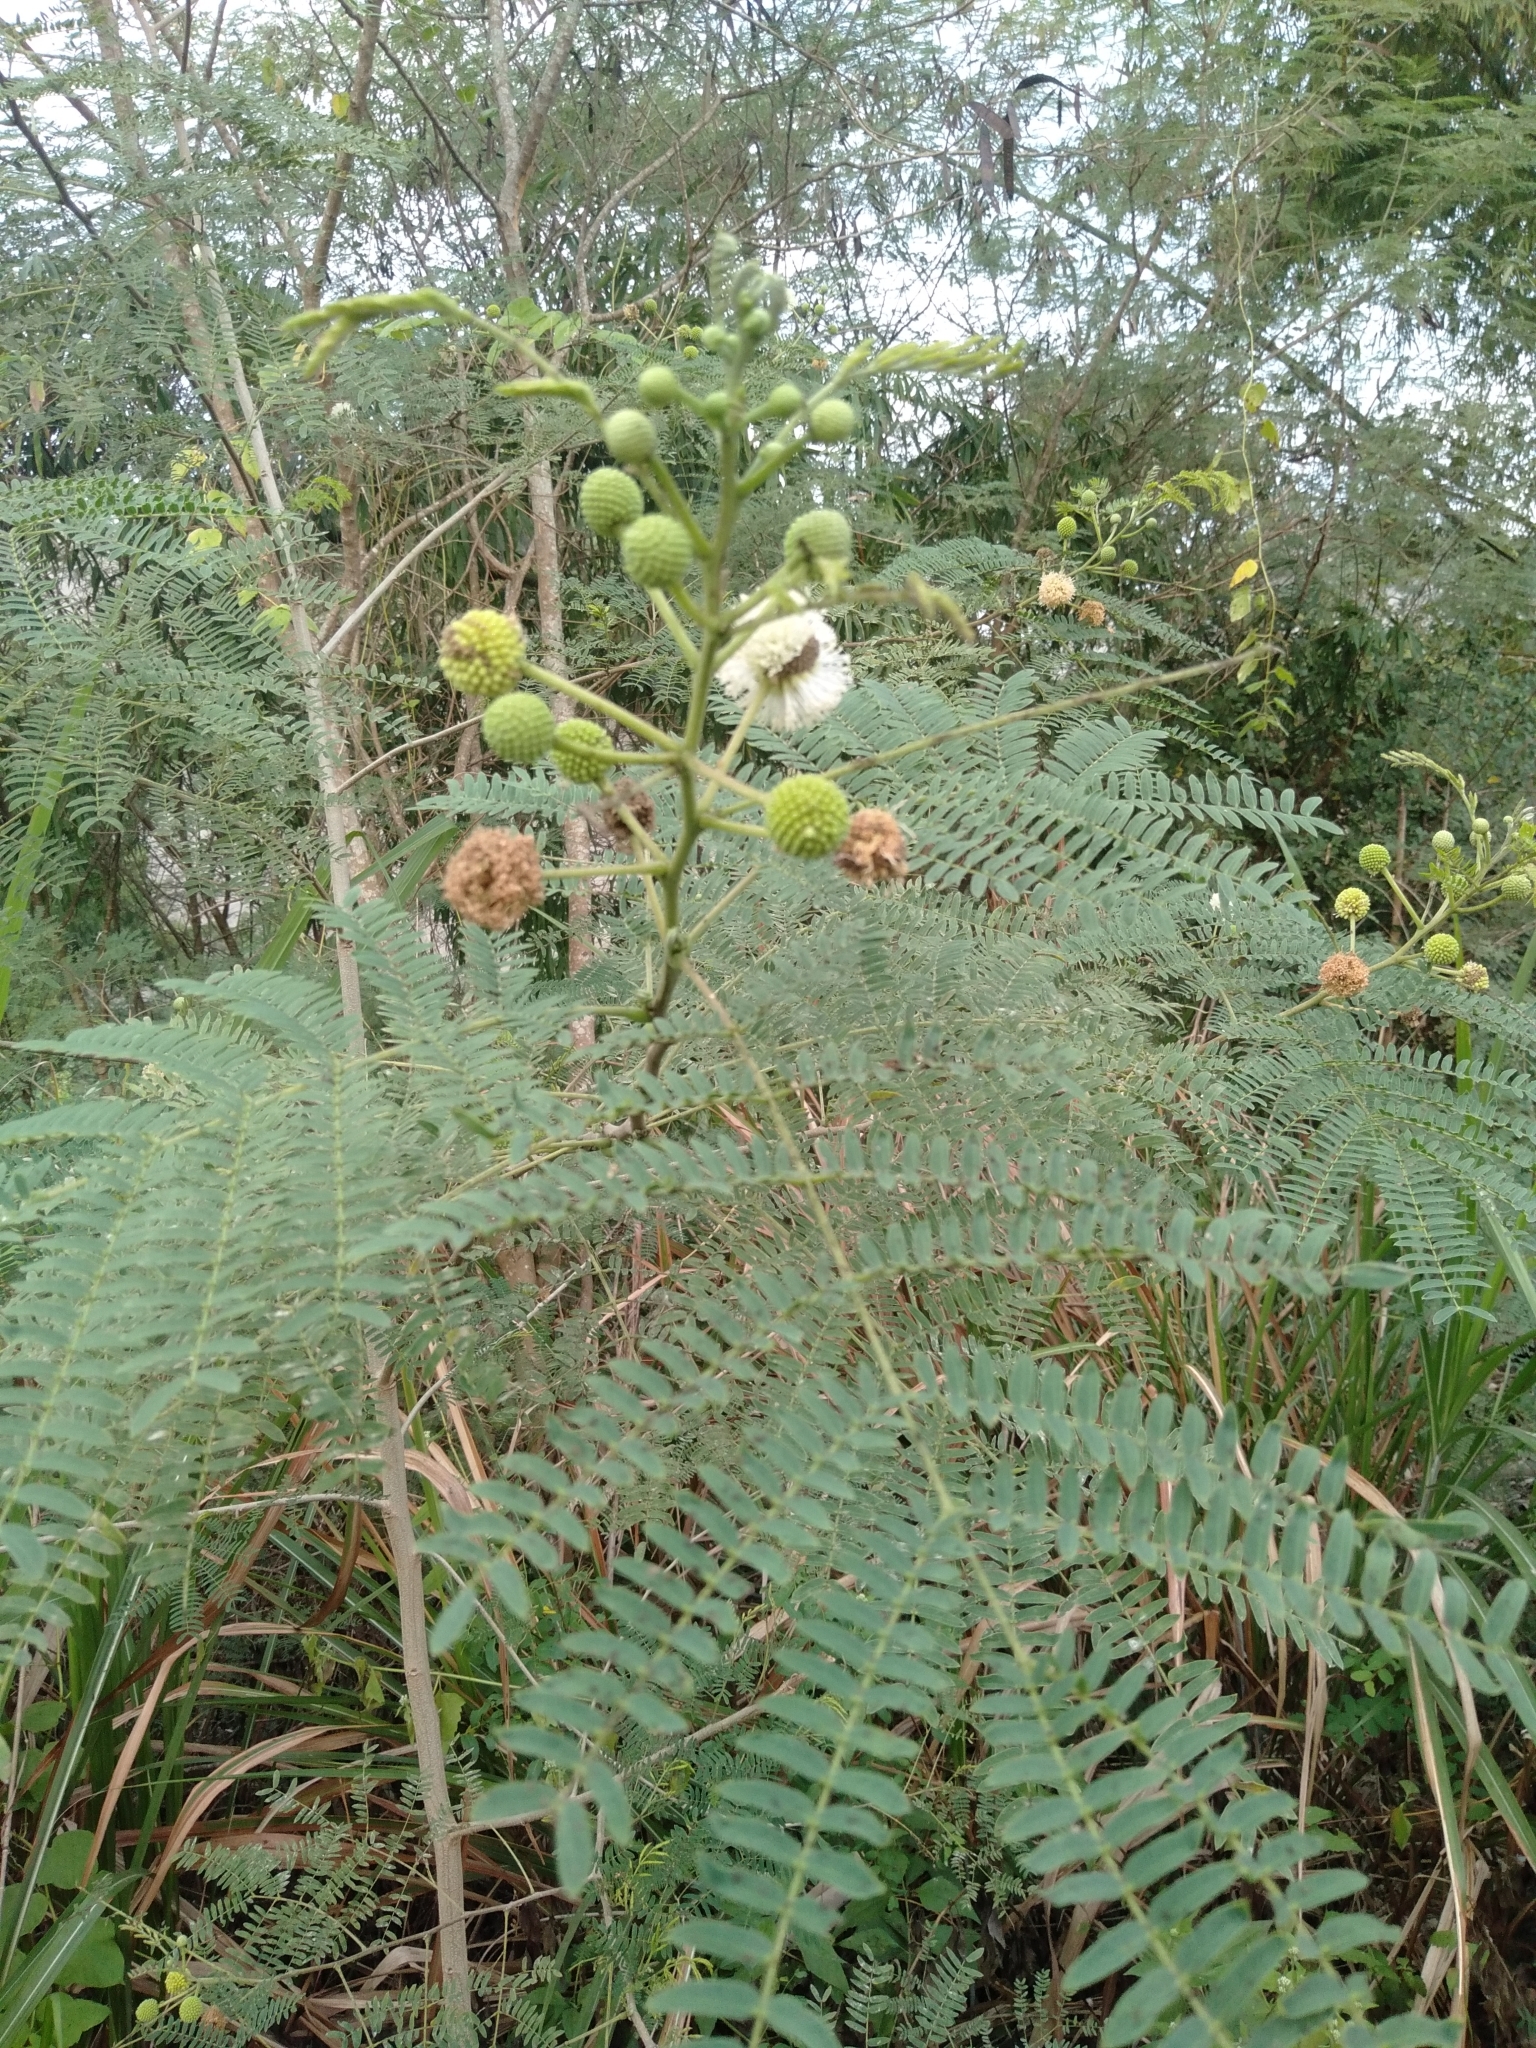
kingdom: Plantae
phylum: Tracheophyta
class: Magnoliopsida
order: Fabales
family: Fabaceae
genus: Leucaena
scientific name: Leucaena leucocephala
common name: White leadtree
